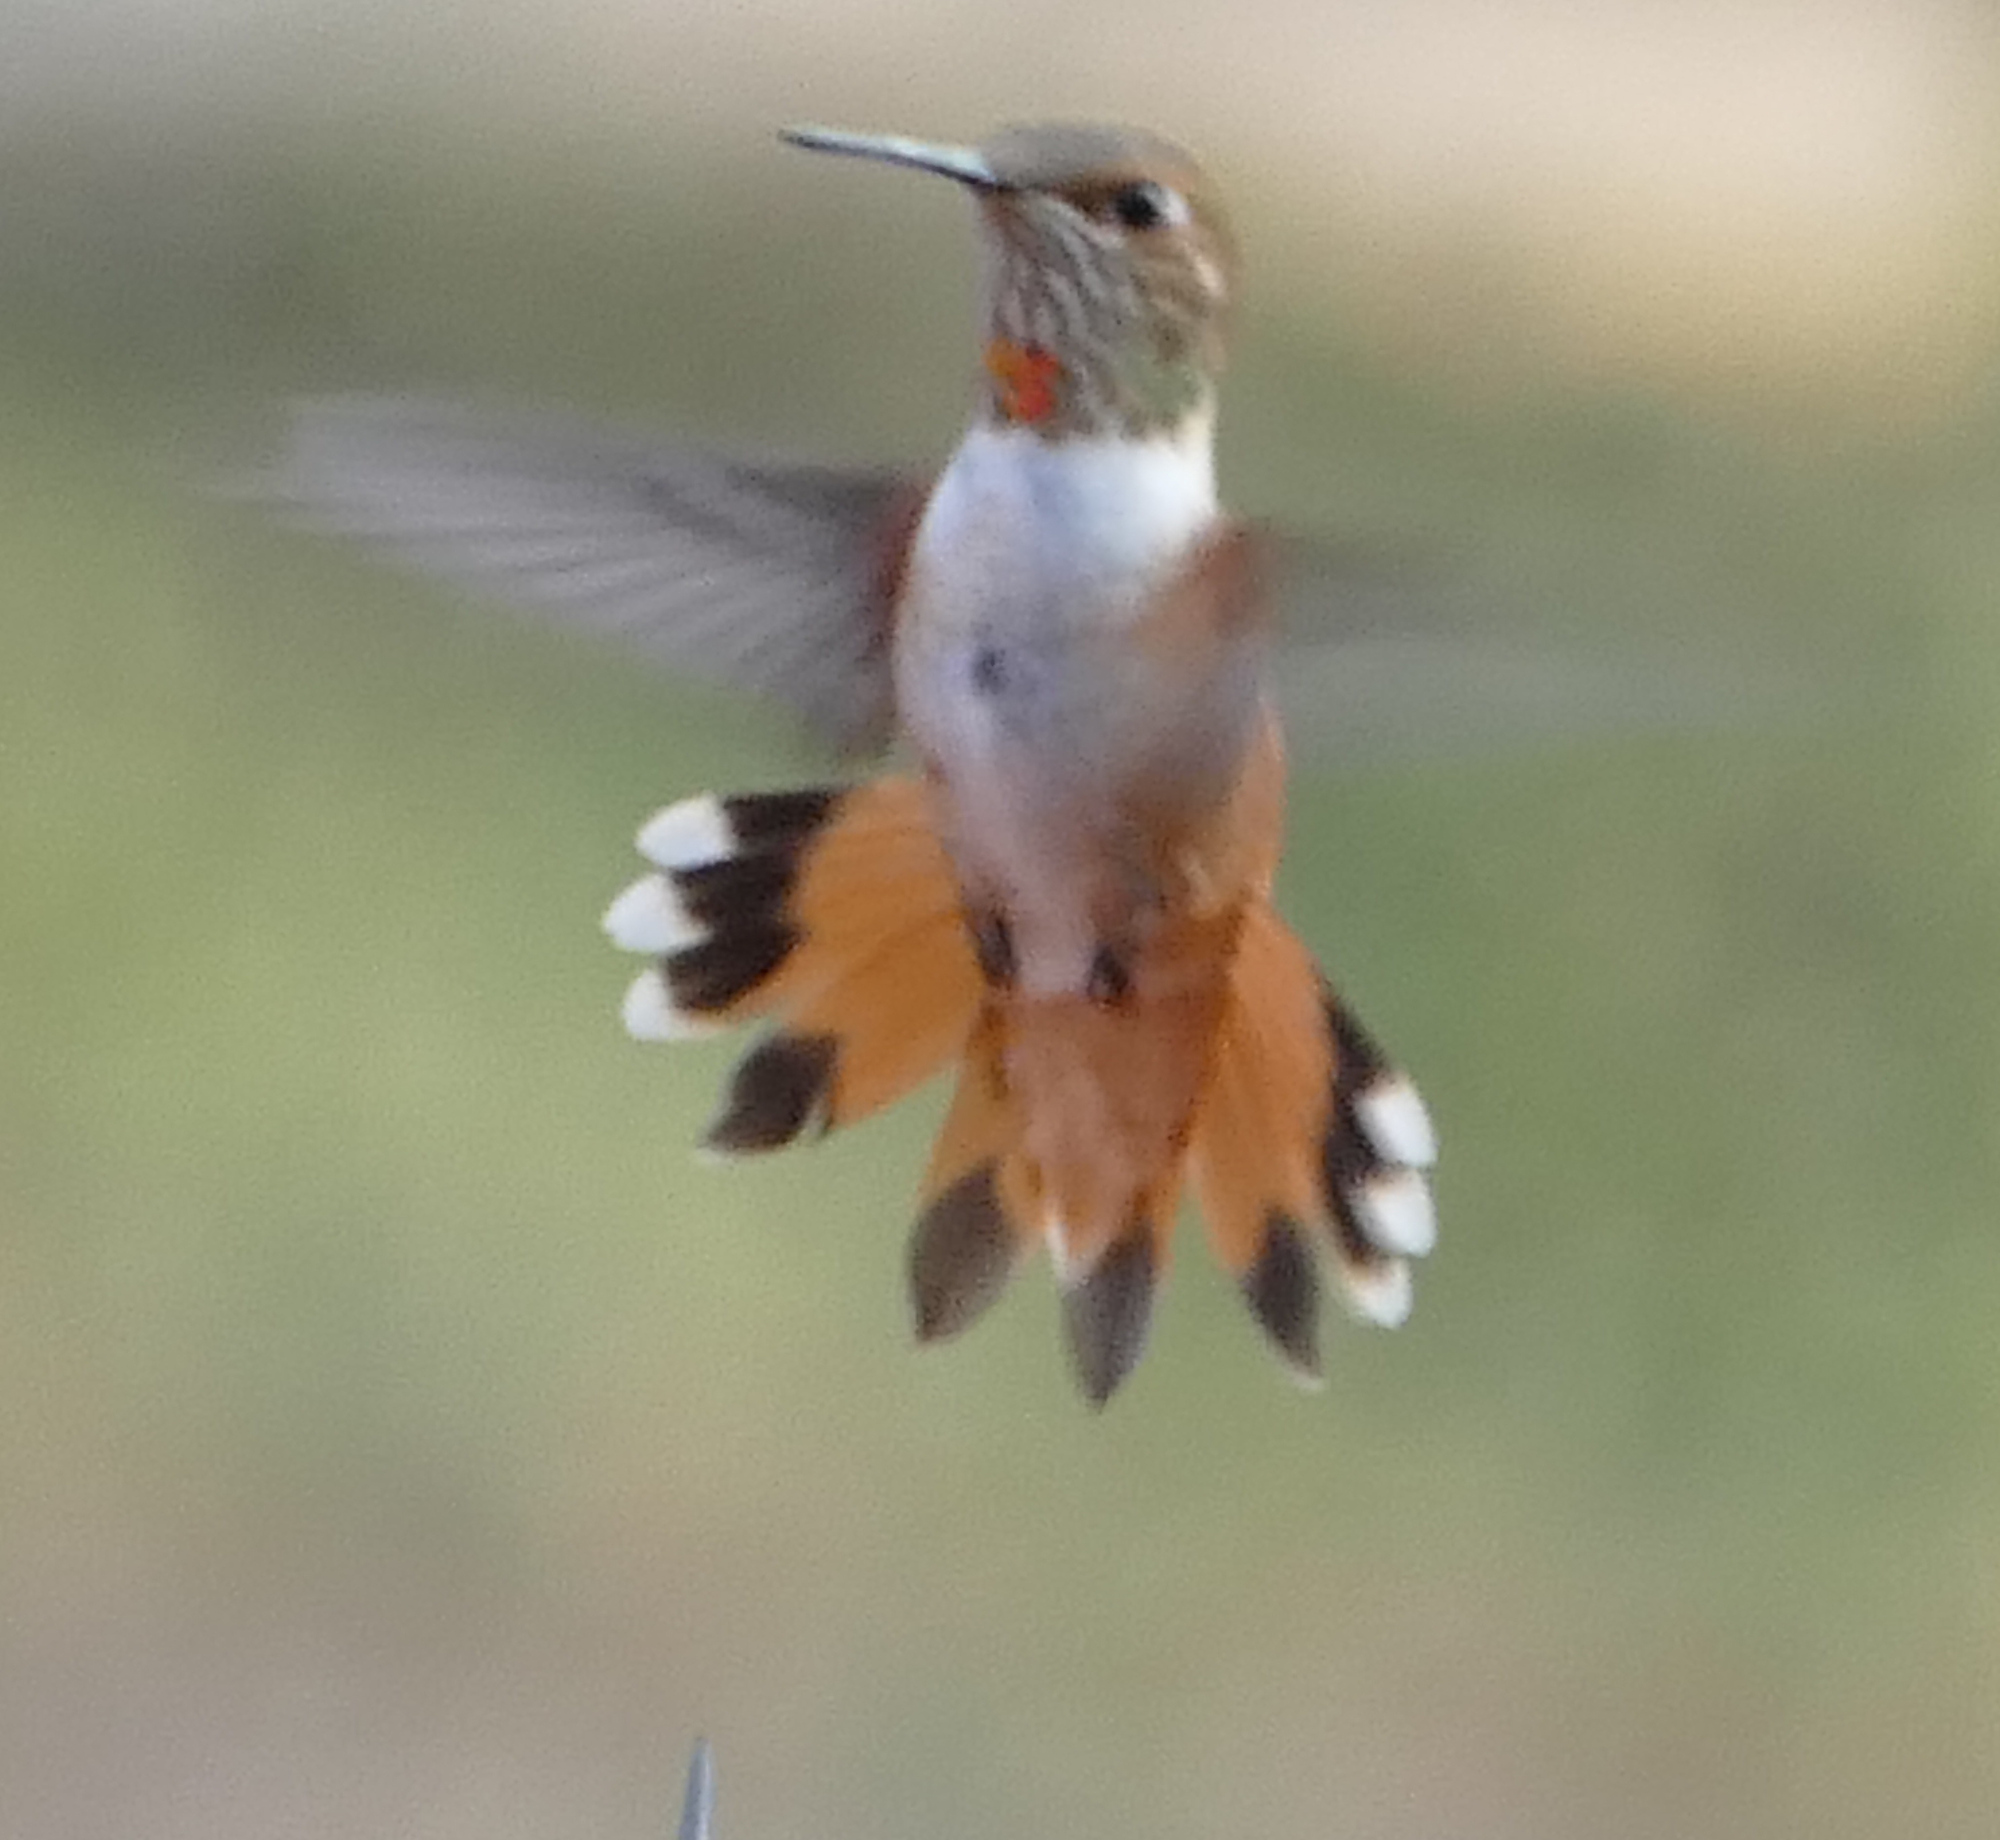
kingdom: Animalia
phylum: Chordata
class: Aves
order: Apodiformes
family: Trochilidae
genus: Selasphorus
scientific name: Selasphorus rufus
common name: Rufous hummingbird
